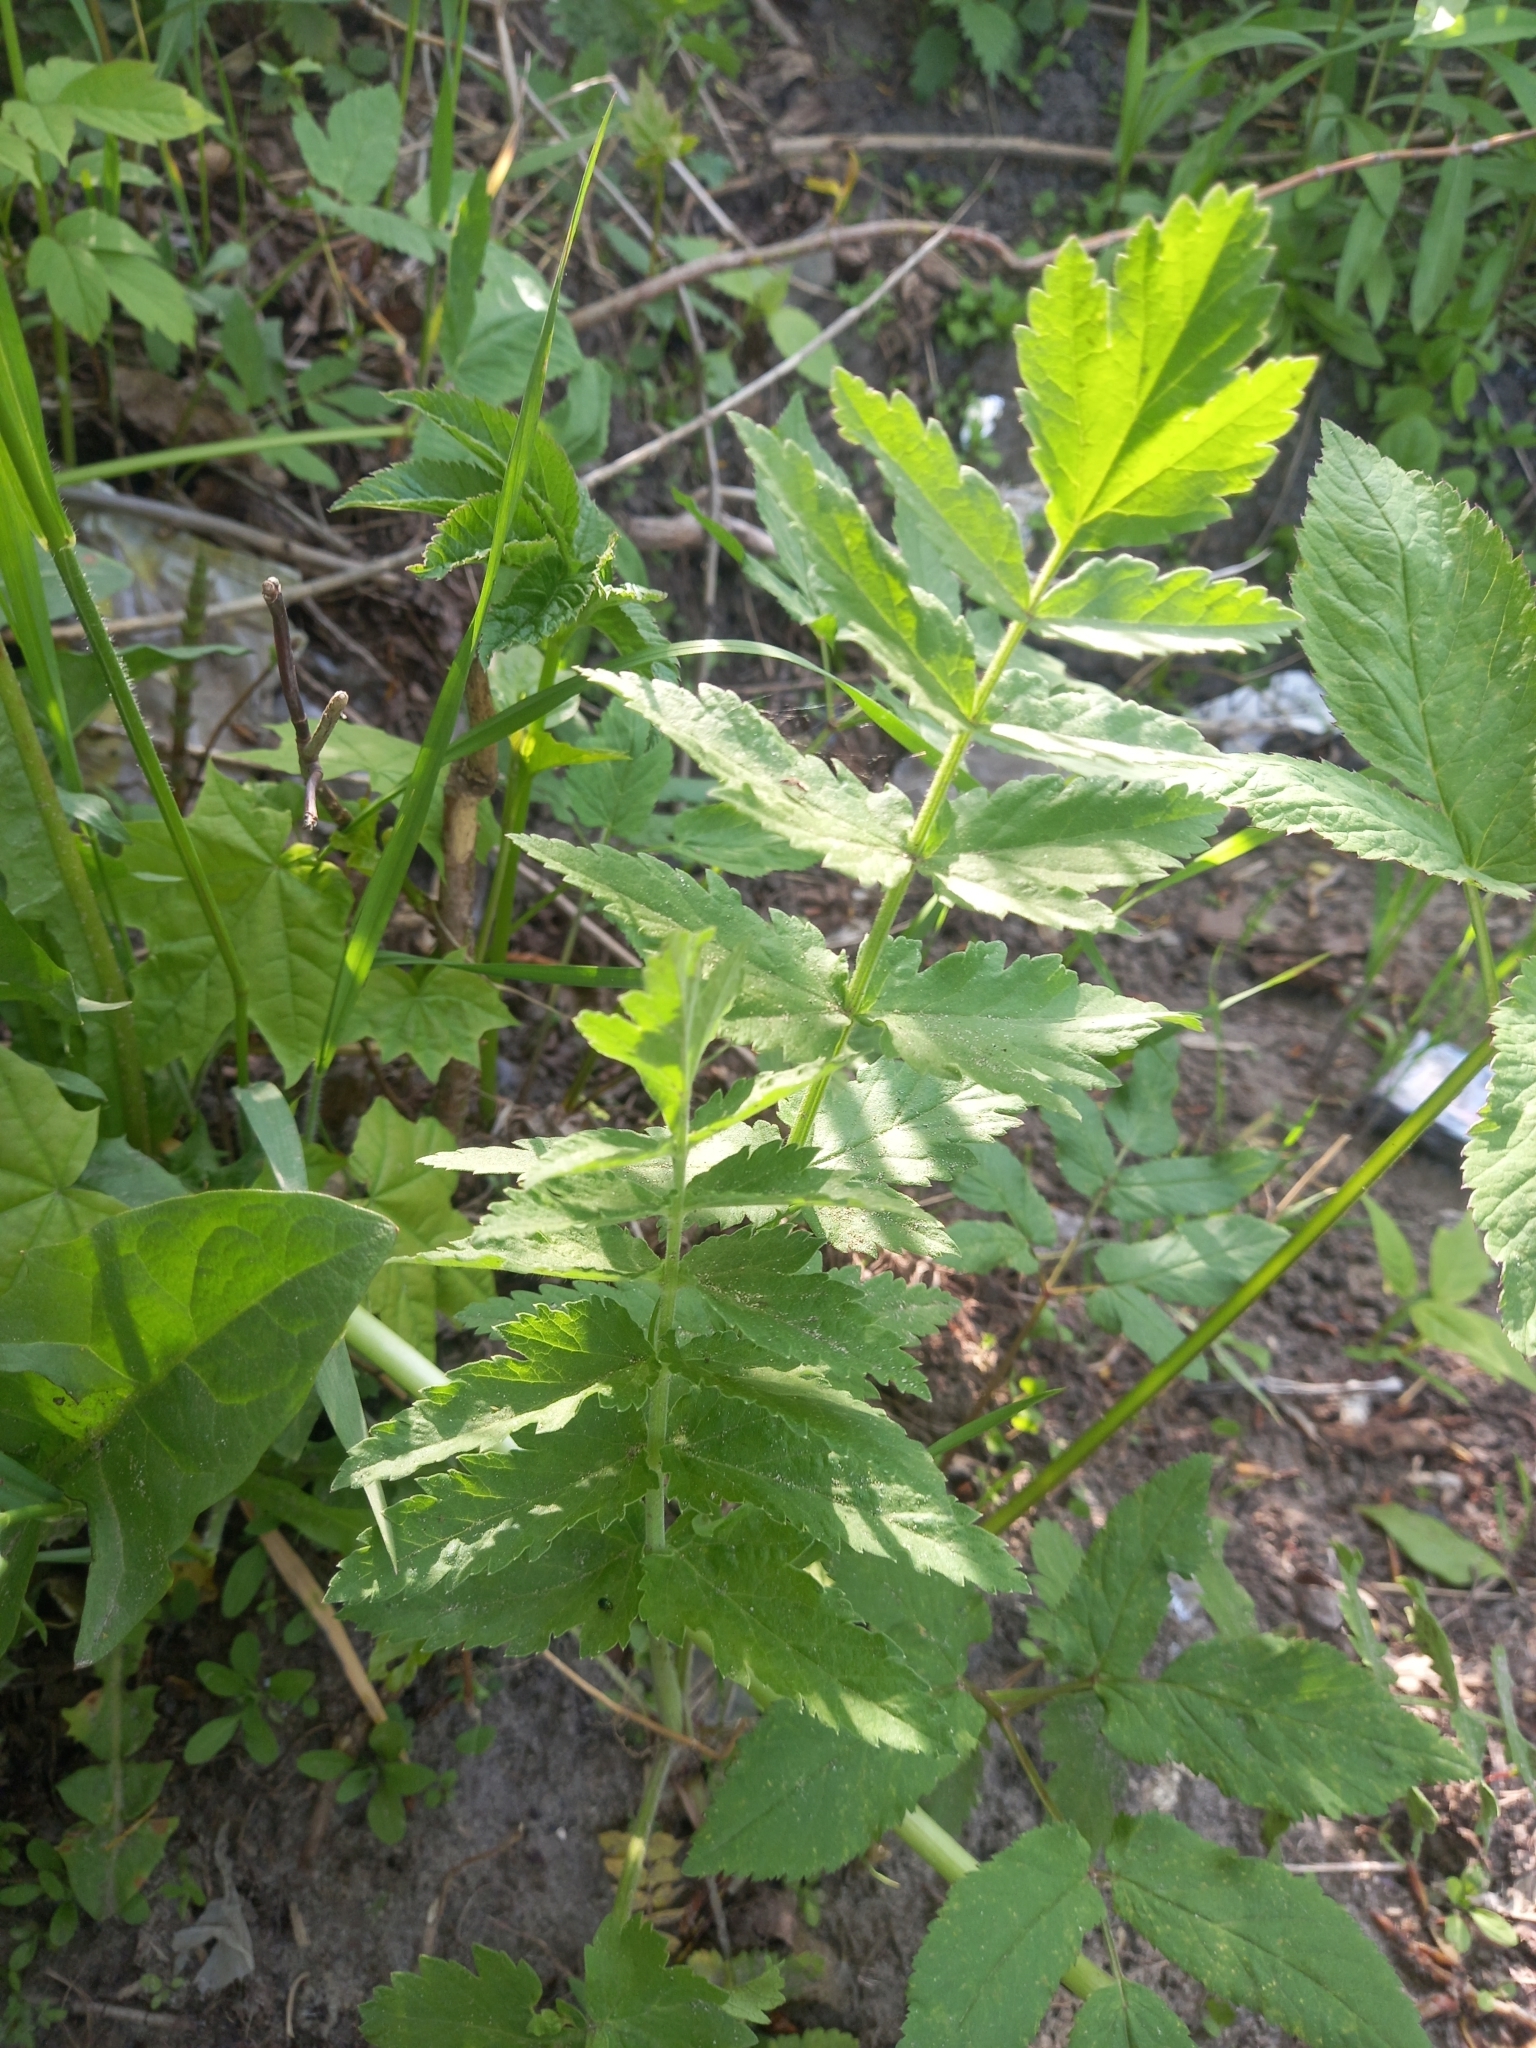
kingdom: Plantae
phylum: Tracheophyta
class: Magnoliopsida
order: Apiales
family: Apiaceae
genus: Pastinaca
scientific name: Pastinaca sativa
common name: Wild parsnip
